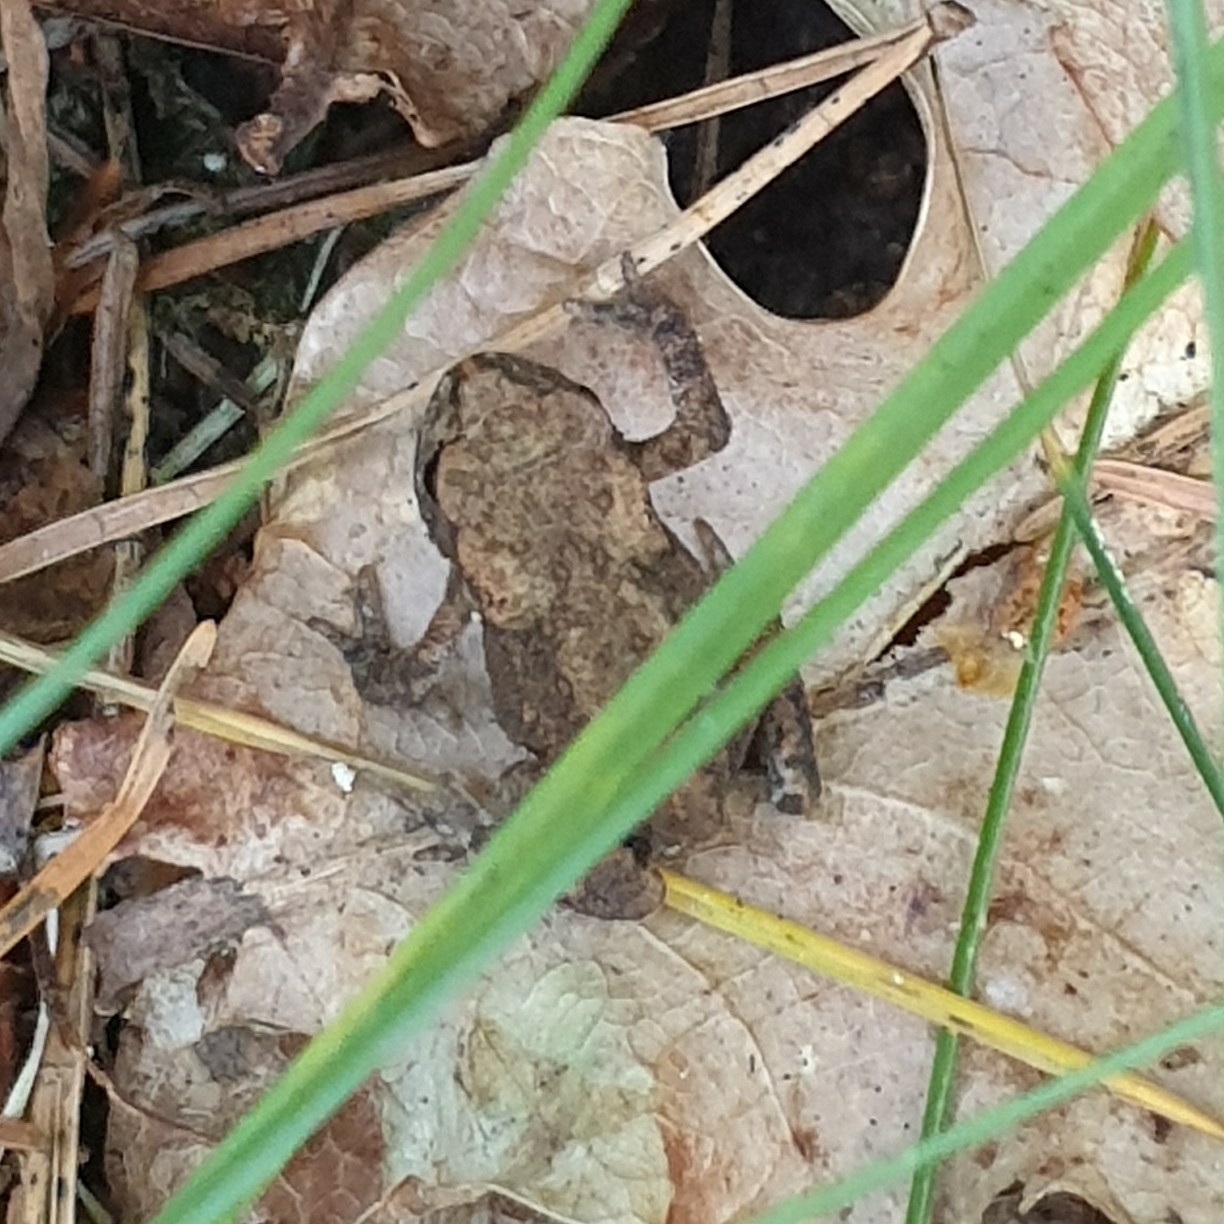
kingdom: Animalia
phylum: Chordata
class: Amphibia
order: Anura
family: Bufonidae
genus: Bufo
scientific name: Bufo bufo
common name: Common toad
